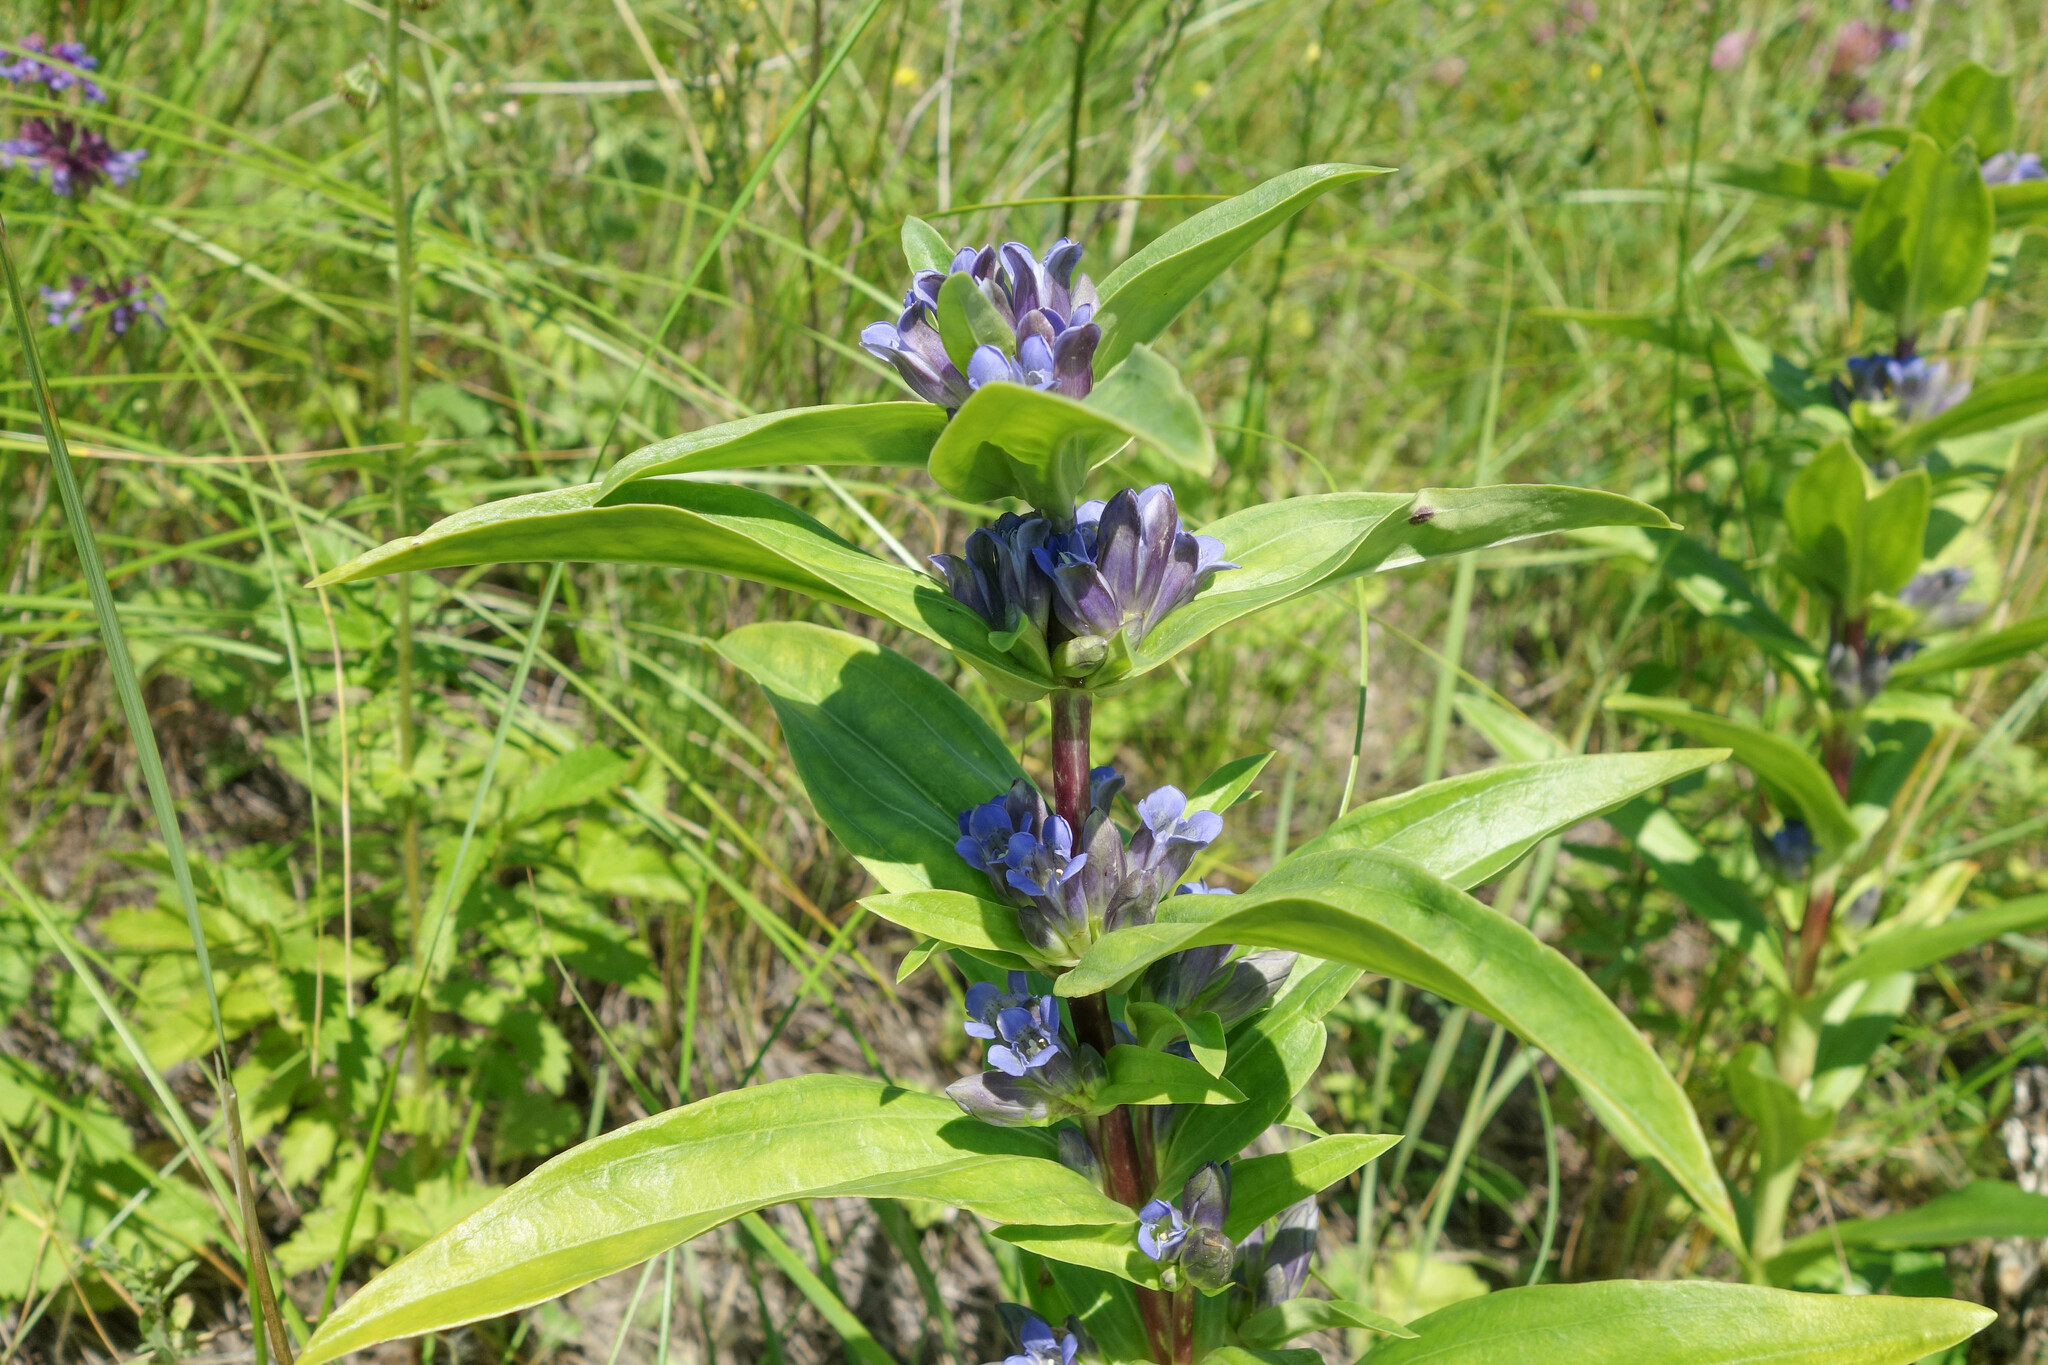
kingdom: Plantae
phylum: Tracheophyta
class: Magnoliopsida
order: Gentianales
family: Gentianaceae
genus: Gentiana
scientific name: Gentiana cruciata
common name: Cross gentian
